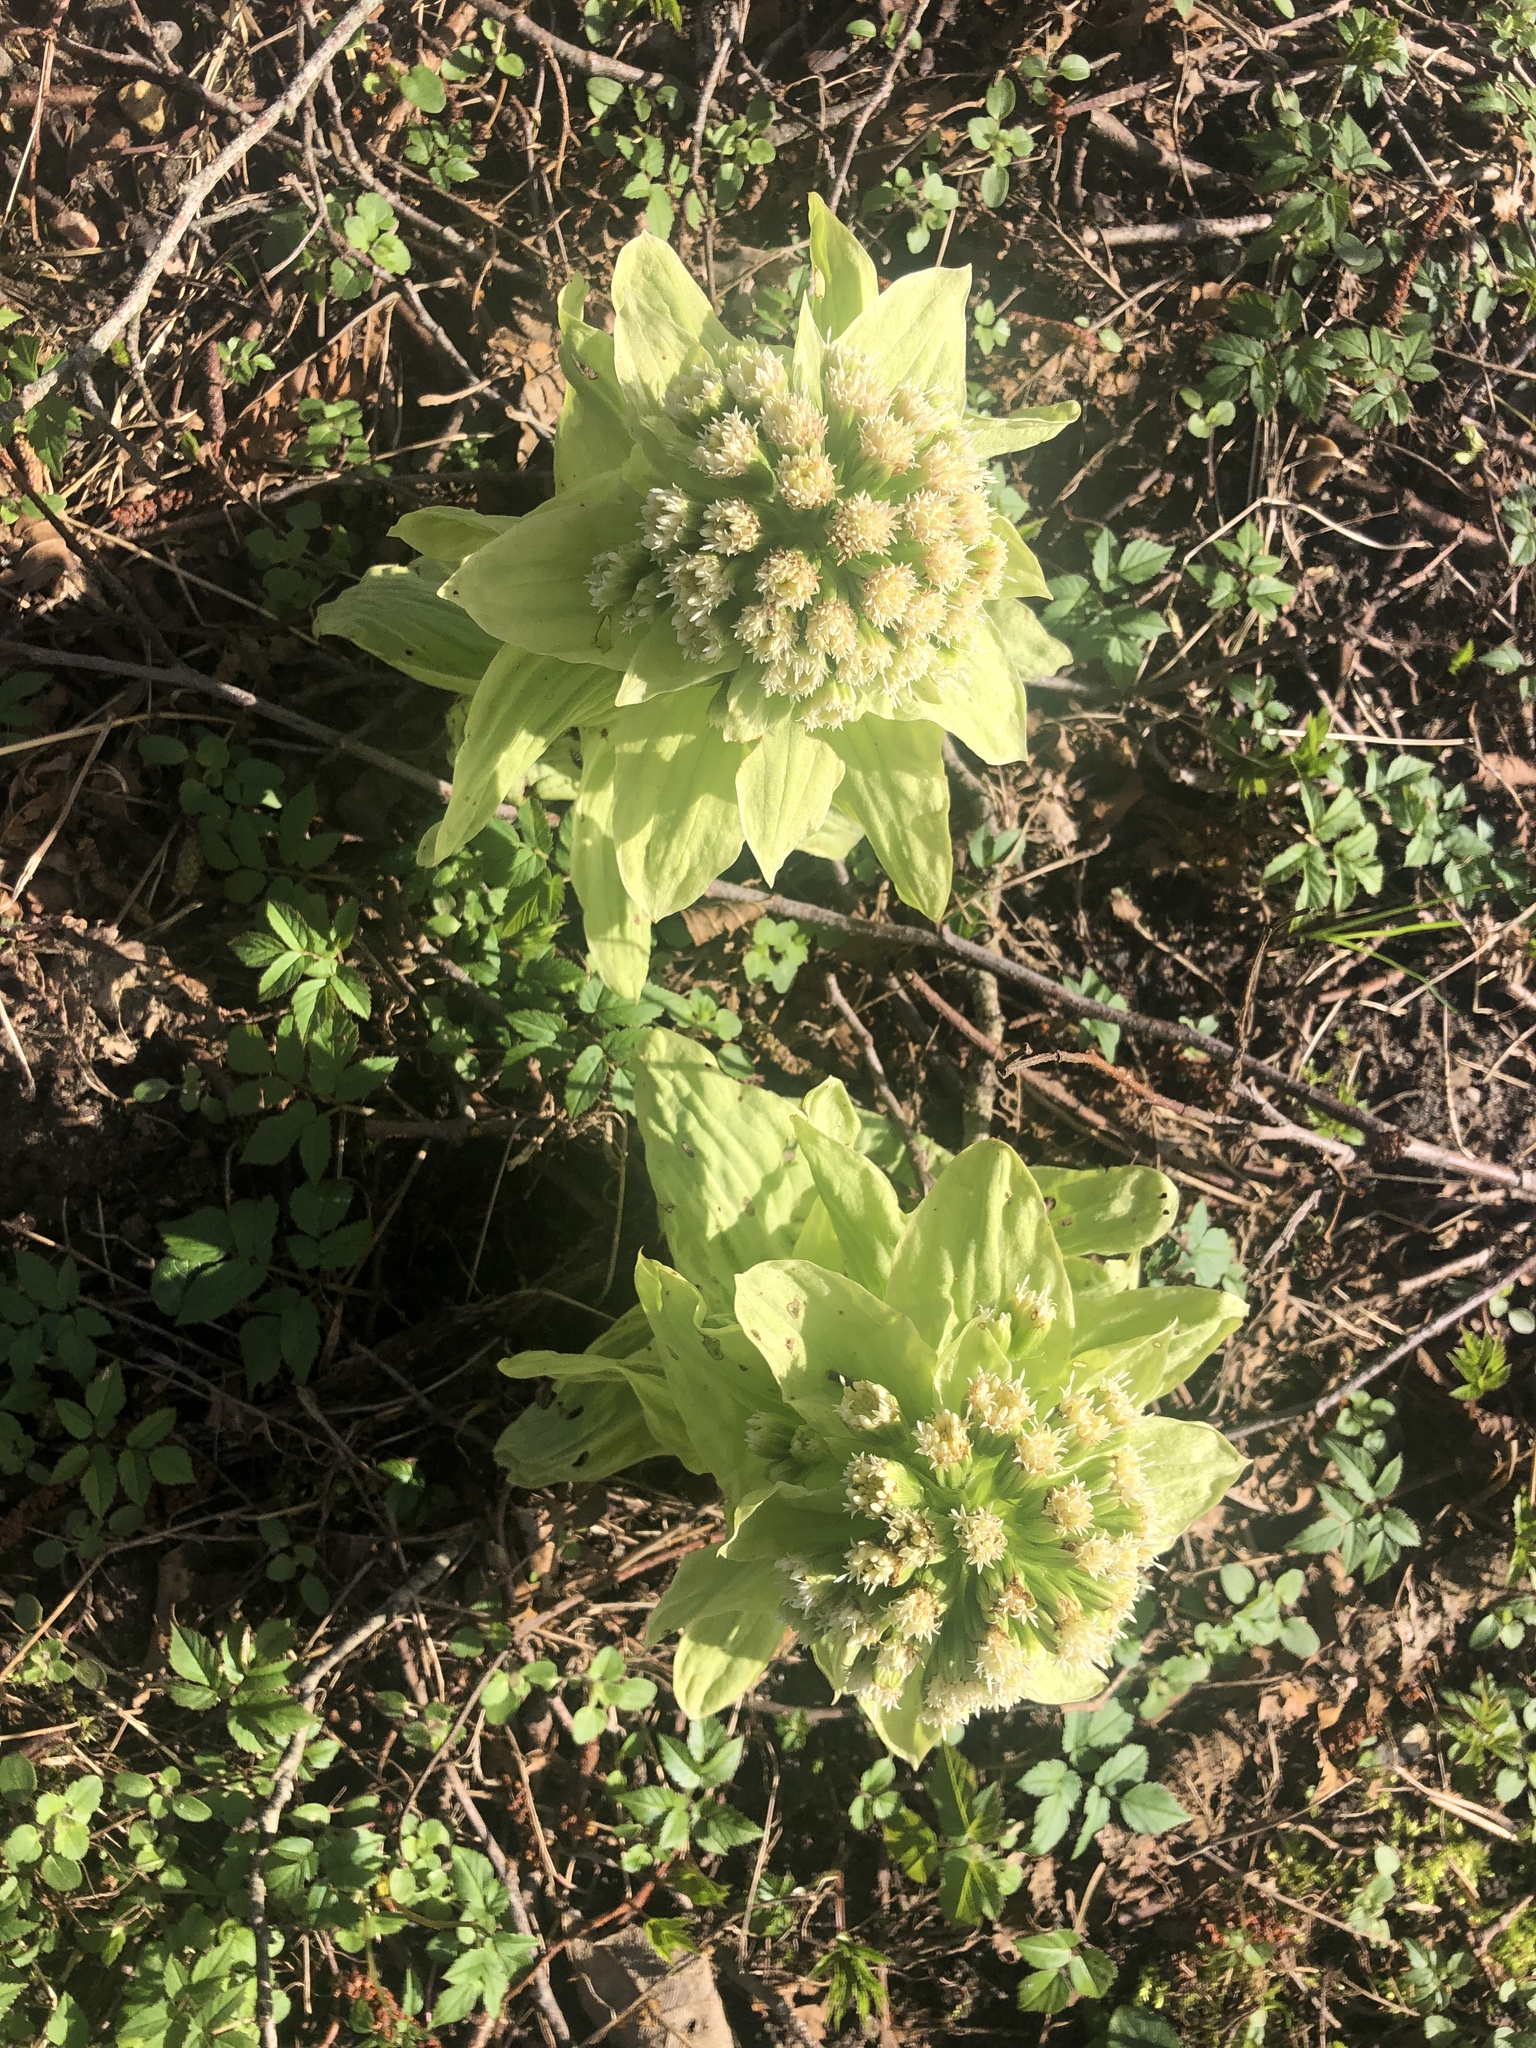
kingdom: Plantae
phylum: Tracheophyta
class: Magnoliopsida
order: Asterales
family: Asteraceae
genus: Petasites
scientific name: Petasites japonicus
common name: Giant butterbur
